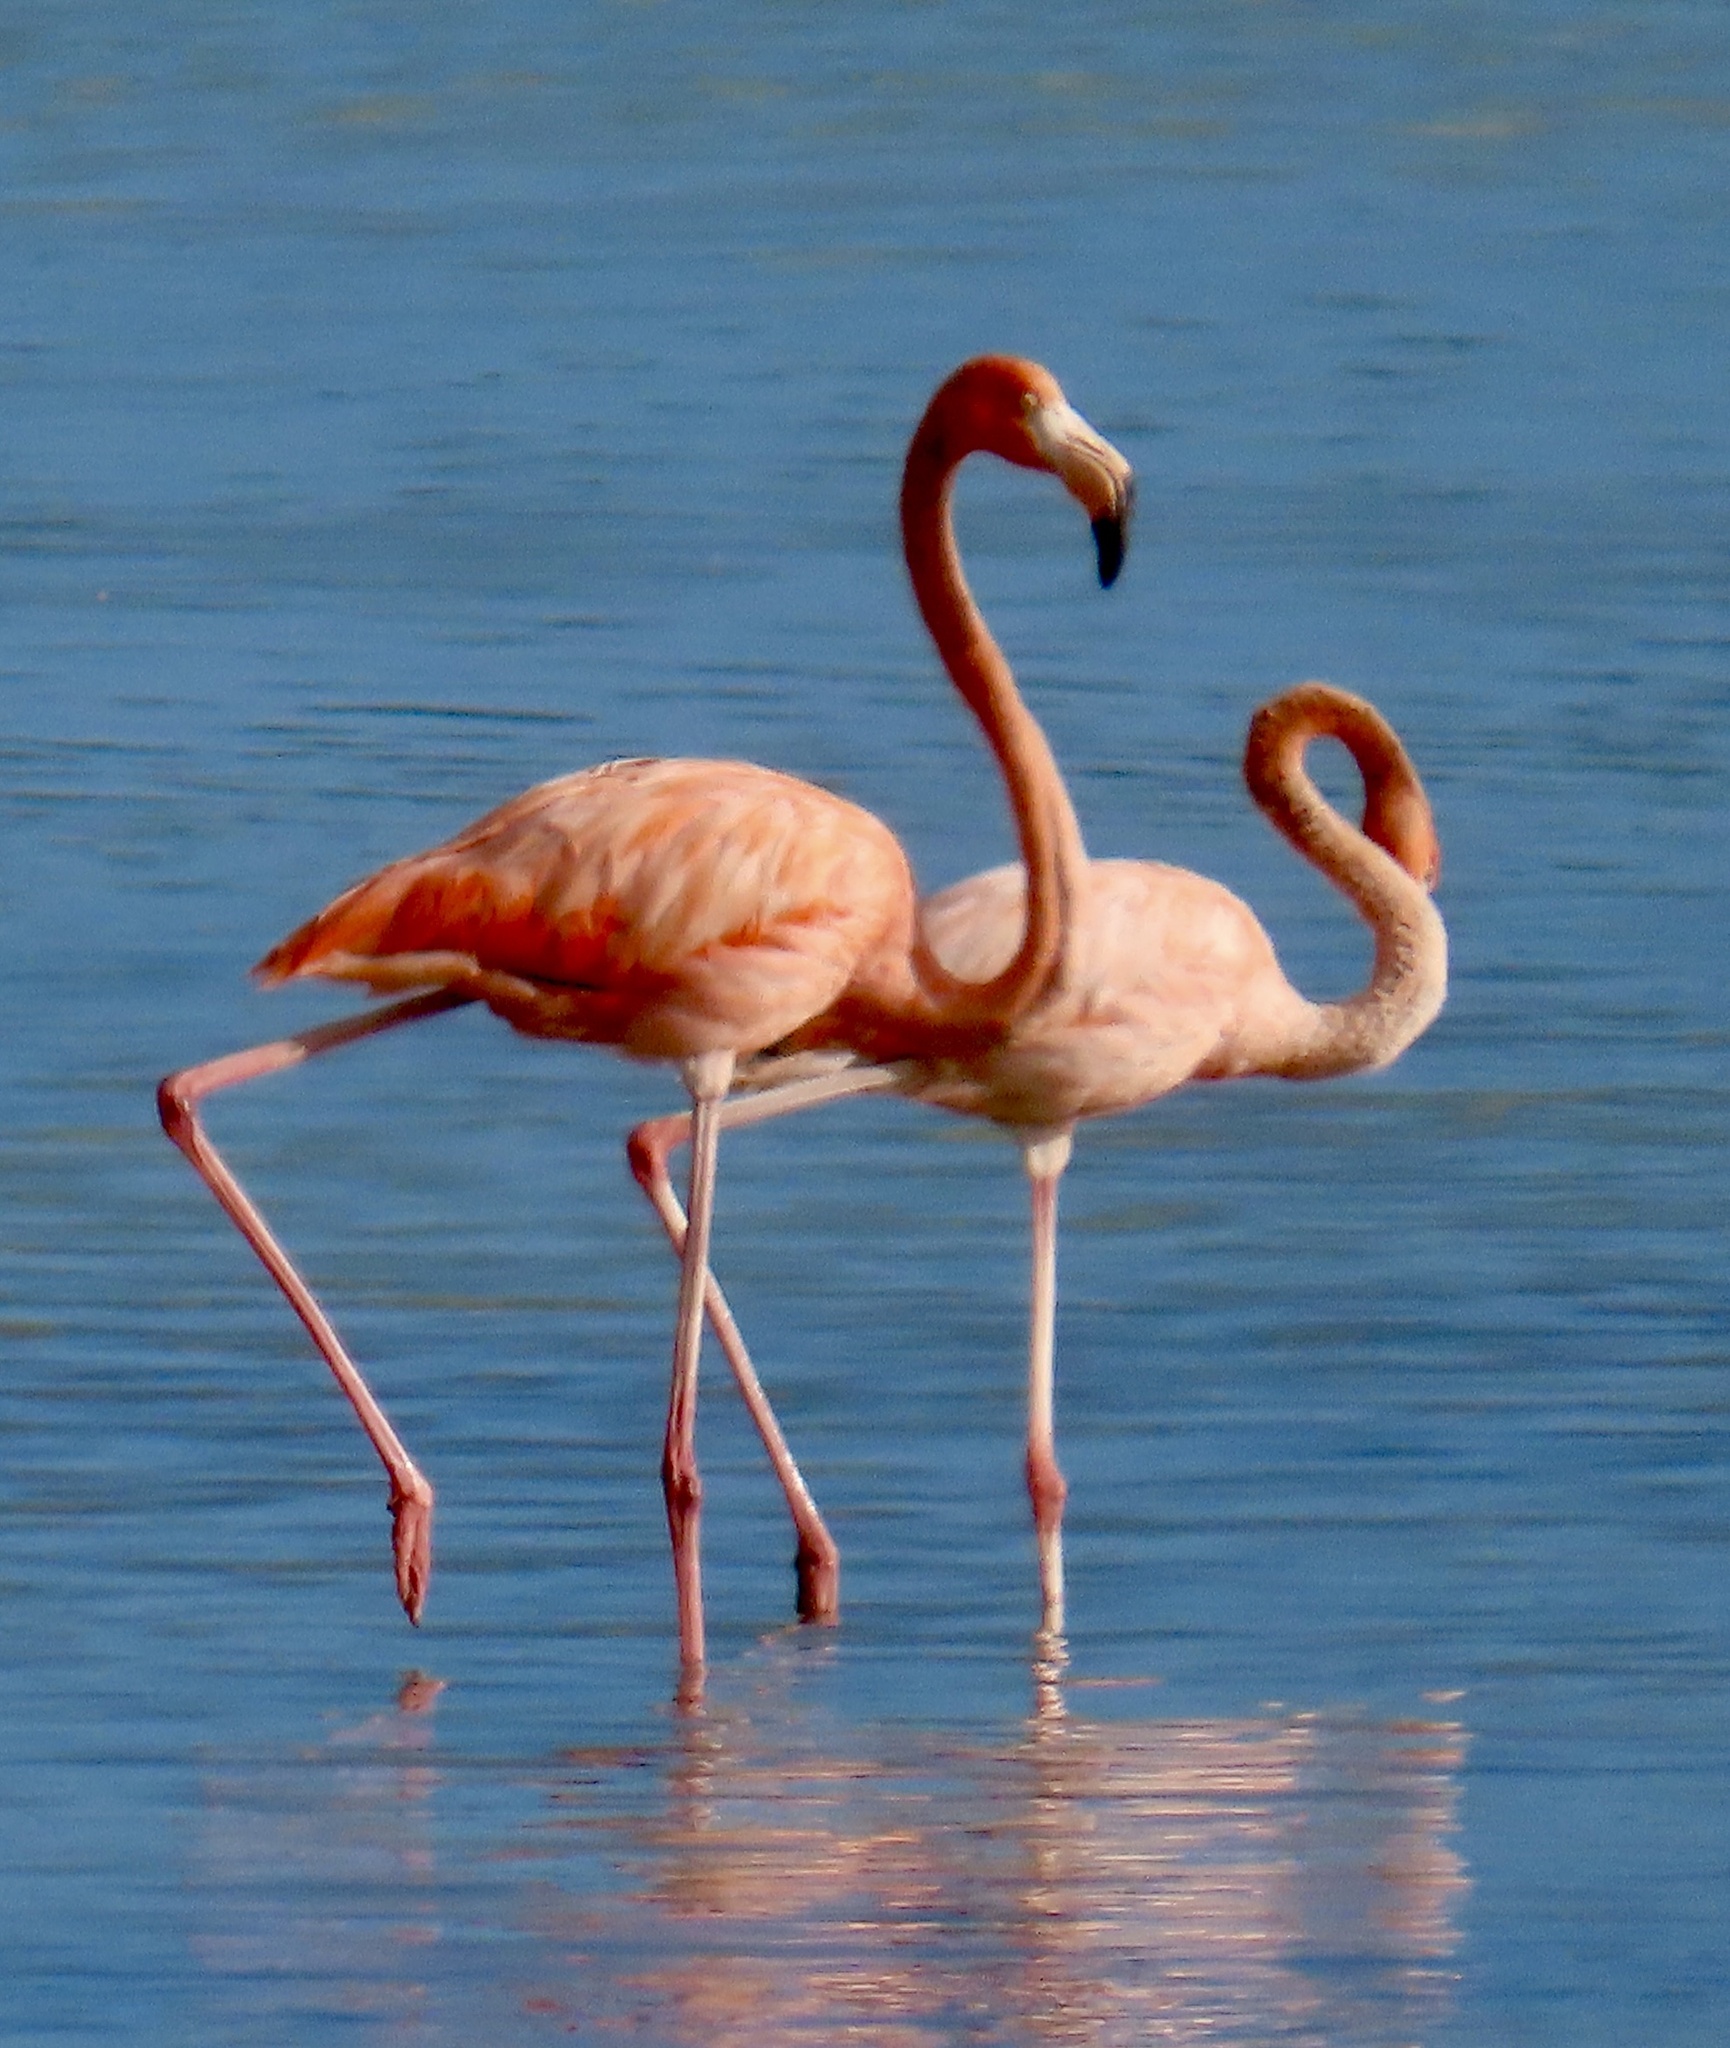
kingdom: Animalia
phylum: Chordata
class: Aves
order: Phoenicopteriformes
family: Phoenicopteridae
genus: Phoenicopterus
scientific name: Phoenicopterus ruber
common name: American flamingo
